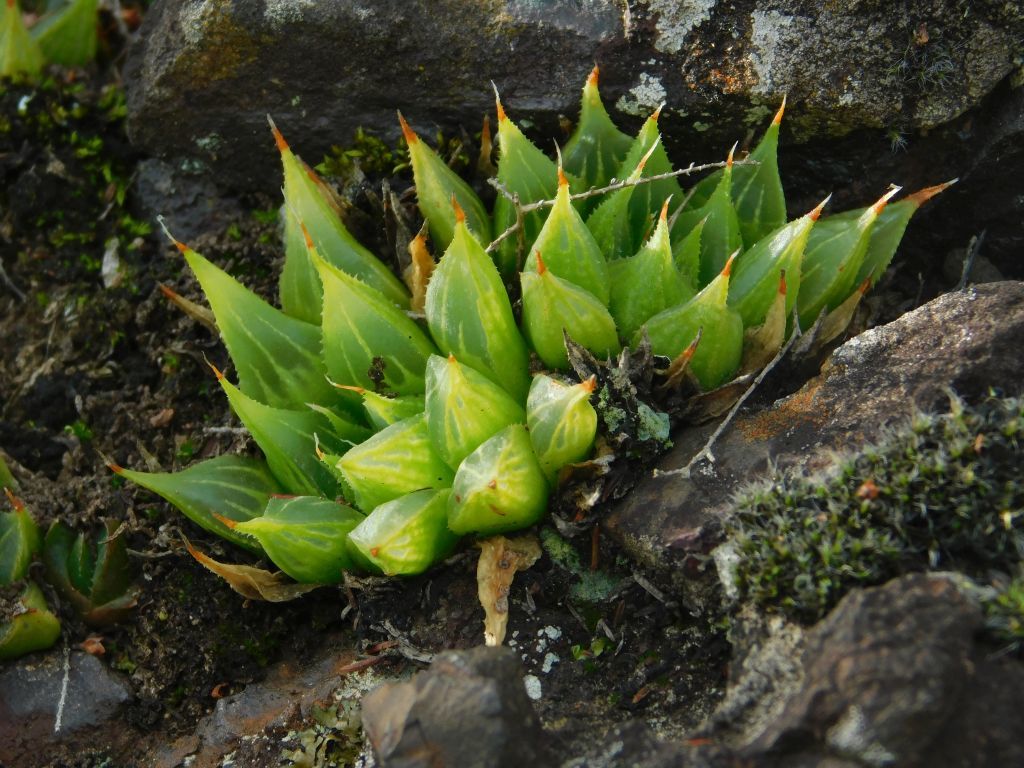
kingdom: Plantae
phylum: Tracheophyta
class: Liliopsida
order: Asparagales
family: Asphodelaceae
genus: Haworthia
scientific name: Haworthia mirabilis
